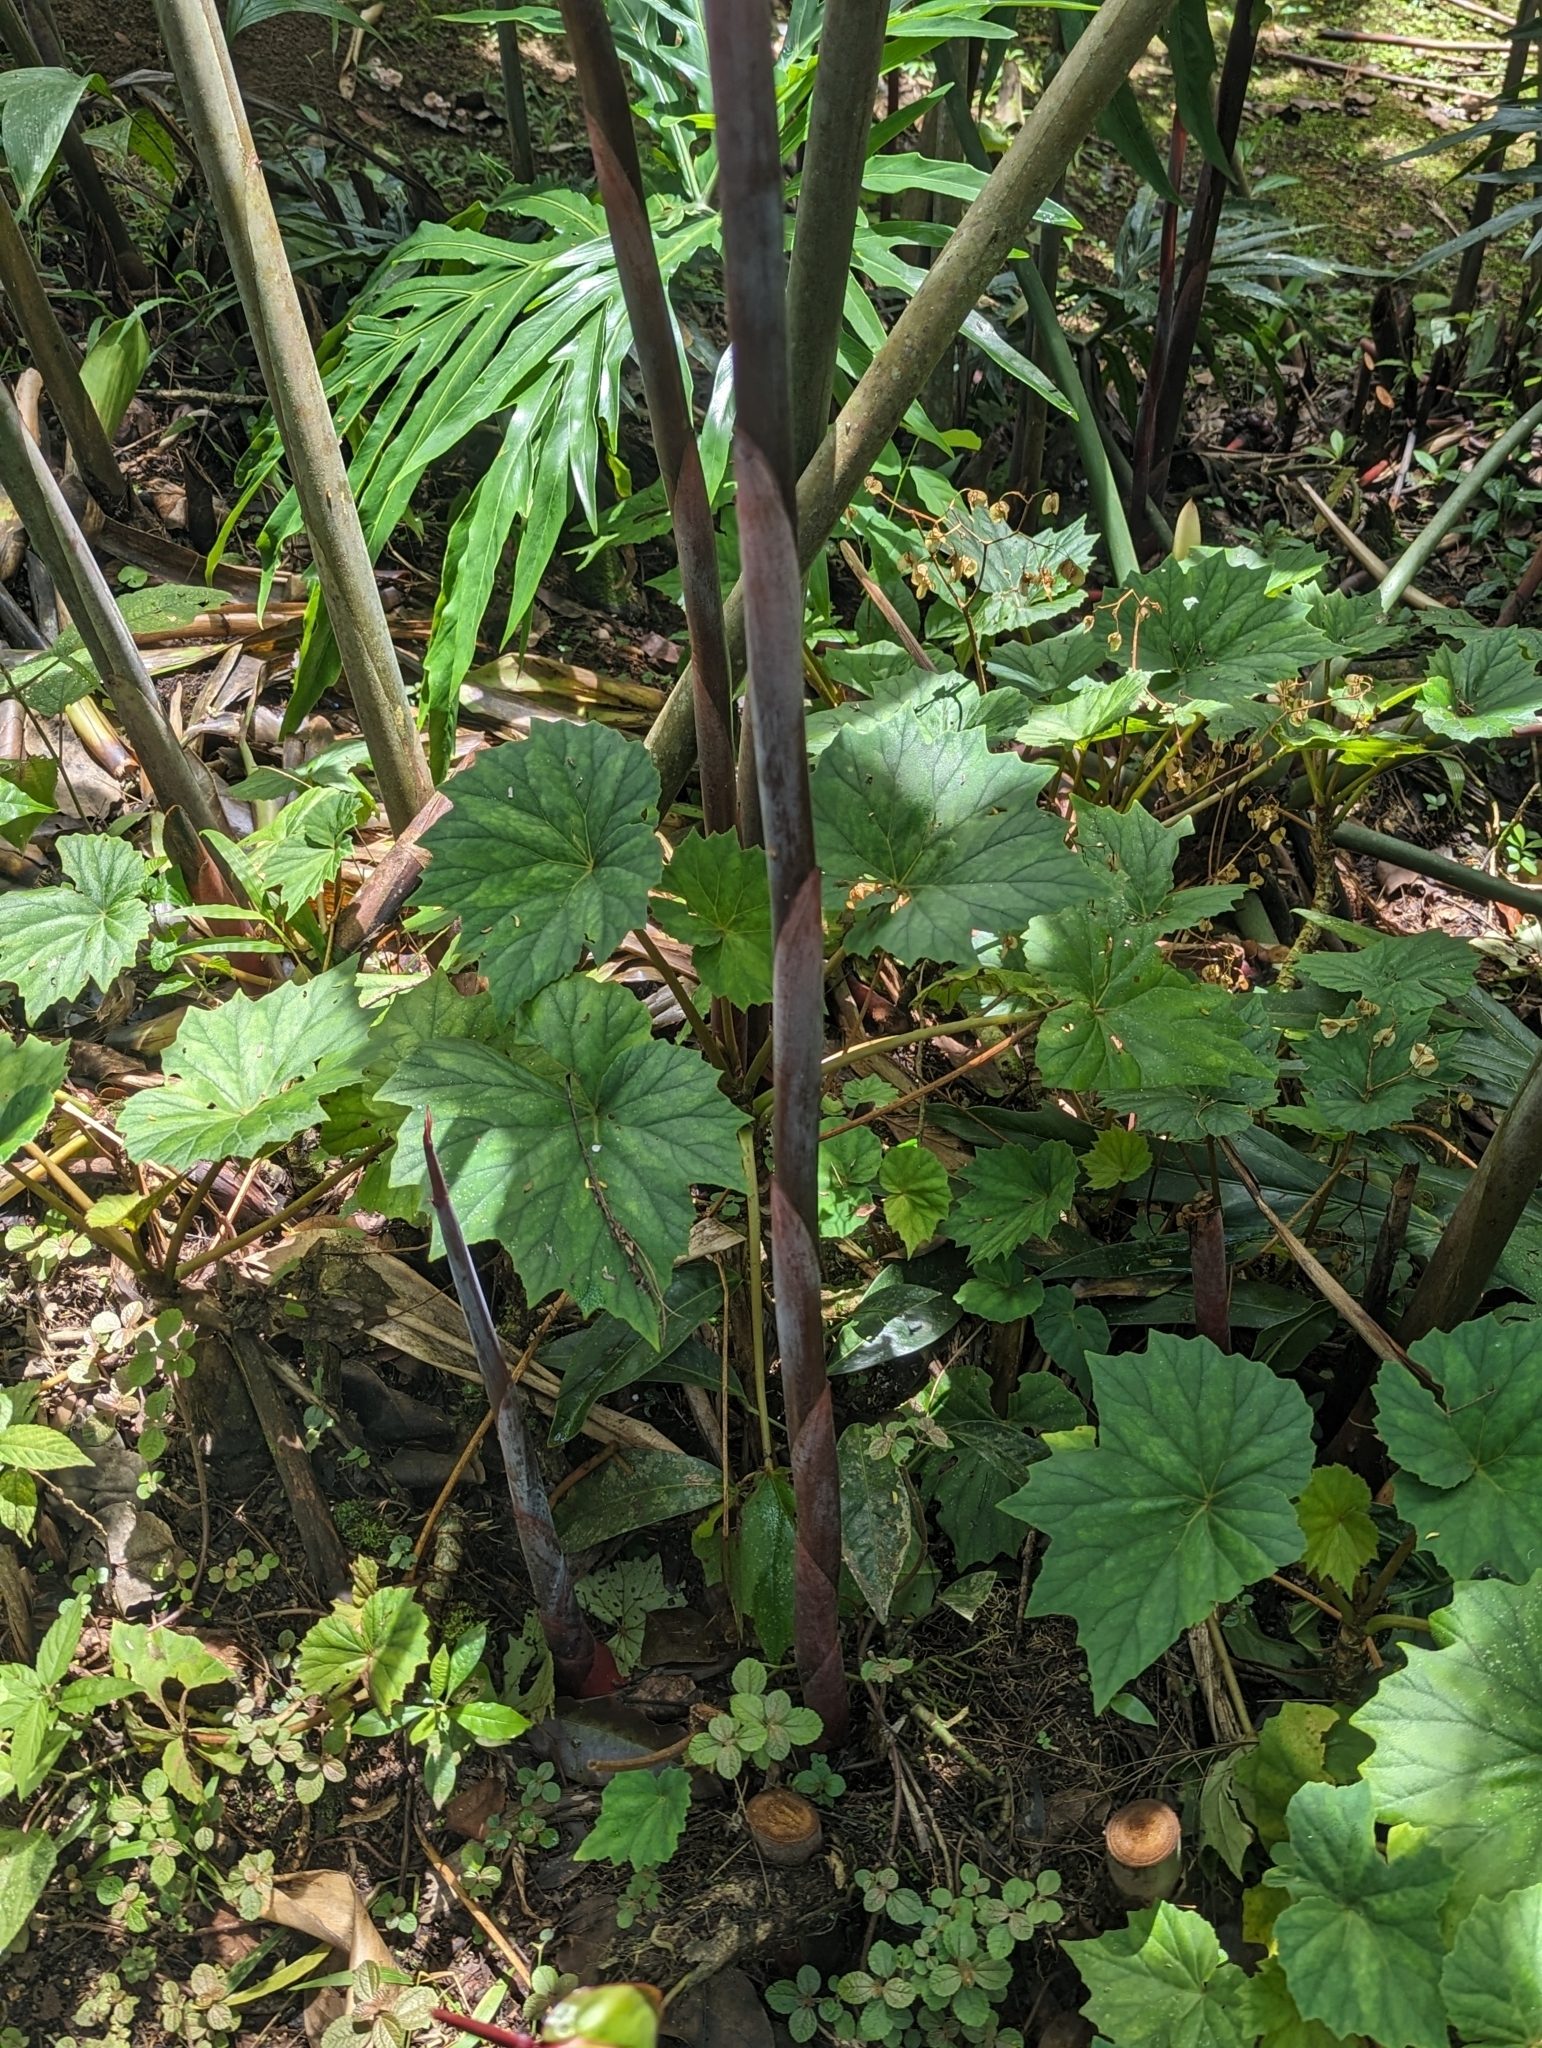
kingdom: Plantae
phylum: Tracheophyta
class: Liliopsida
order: Zingiberales
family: Zingiberaceae
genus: Etlingera
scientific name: Etlingera elatior
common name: Philippine waxflower
